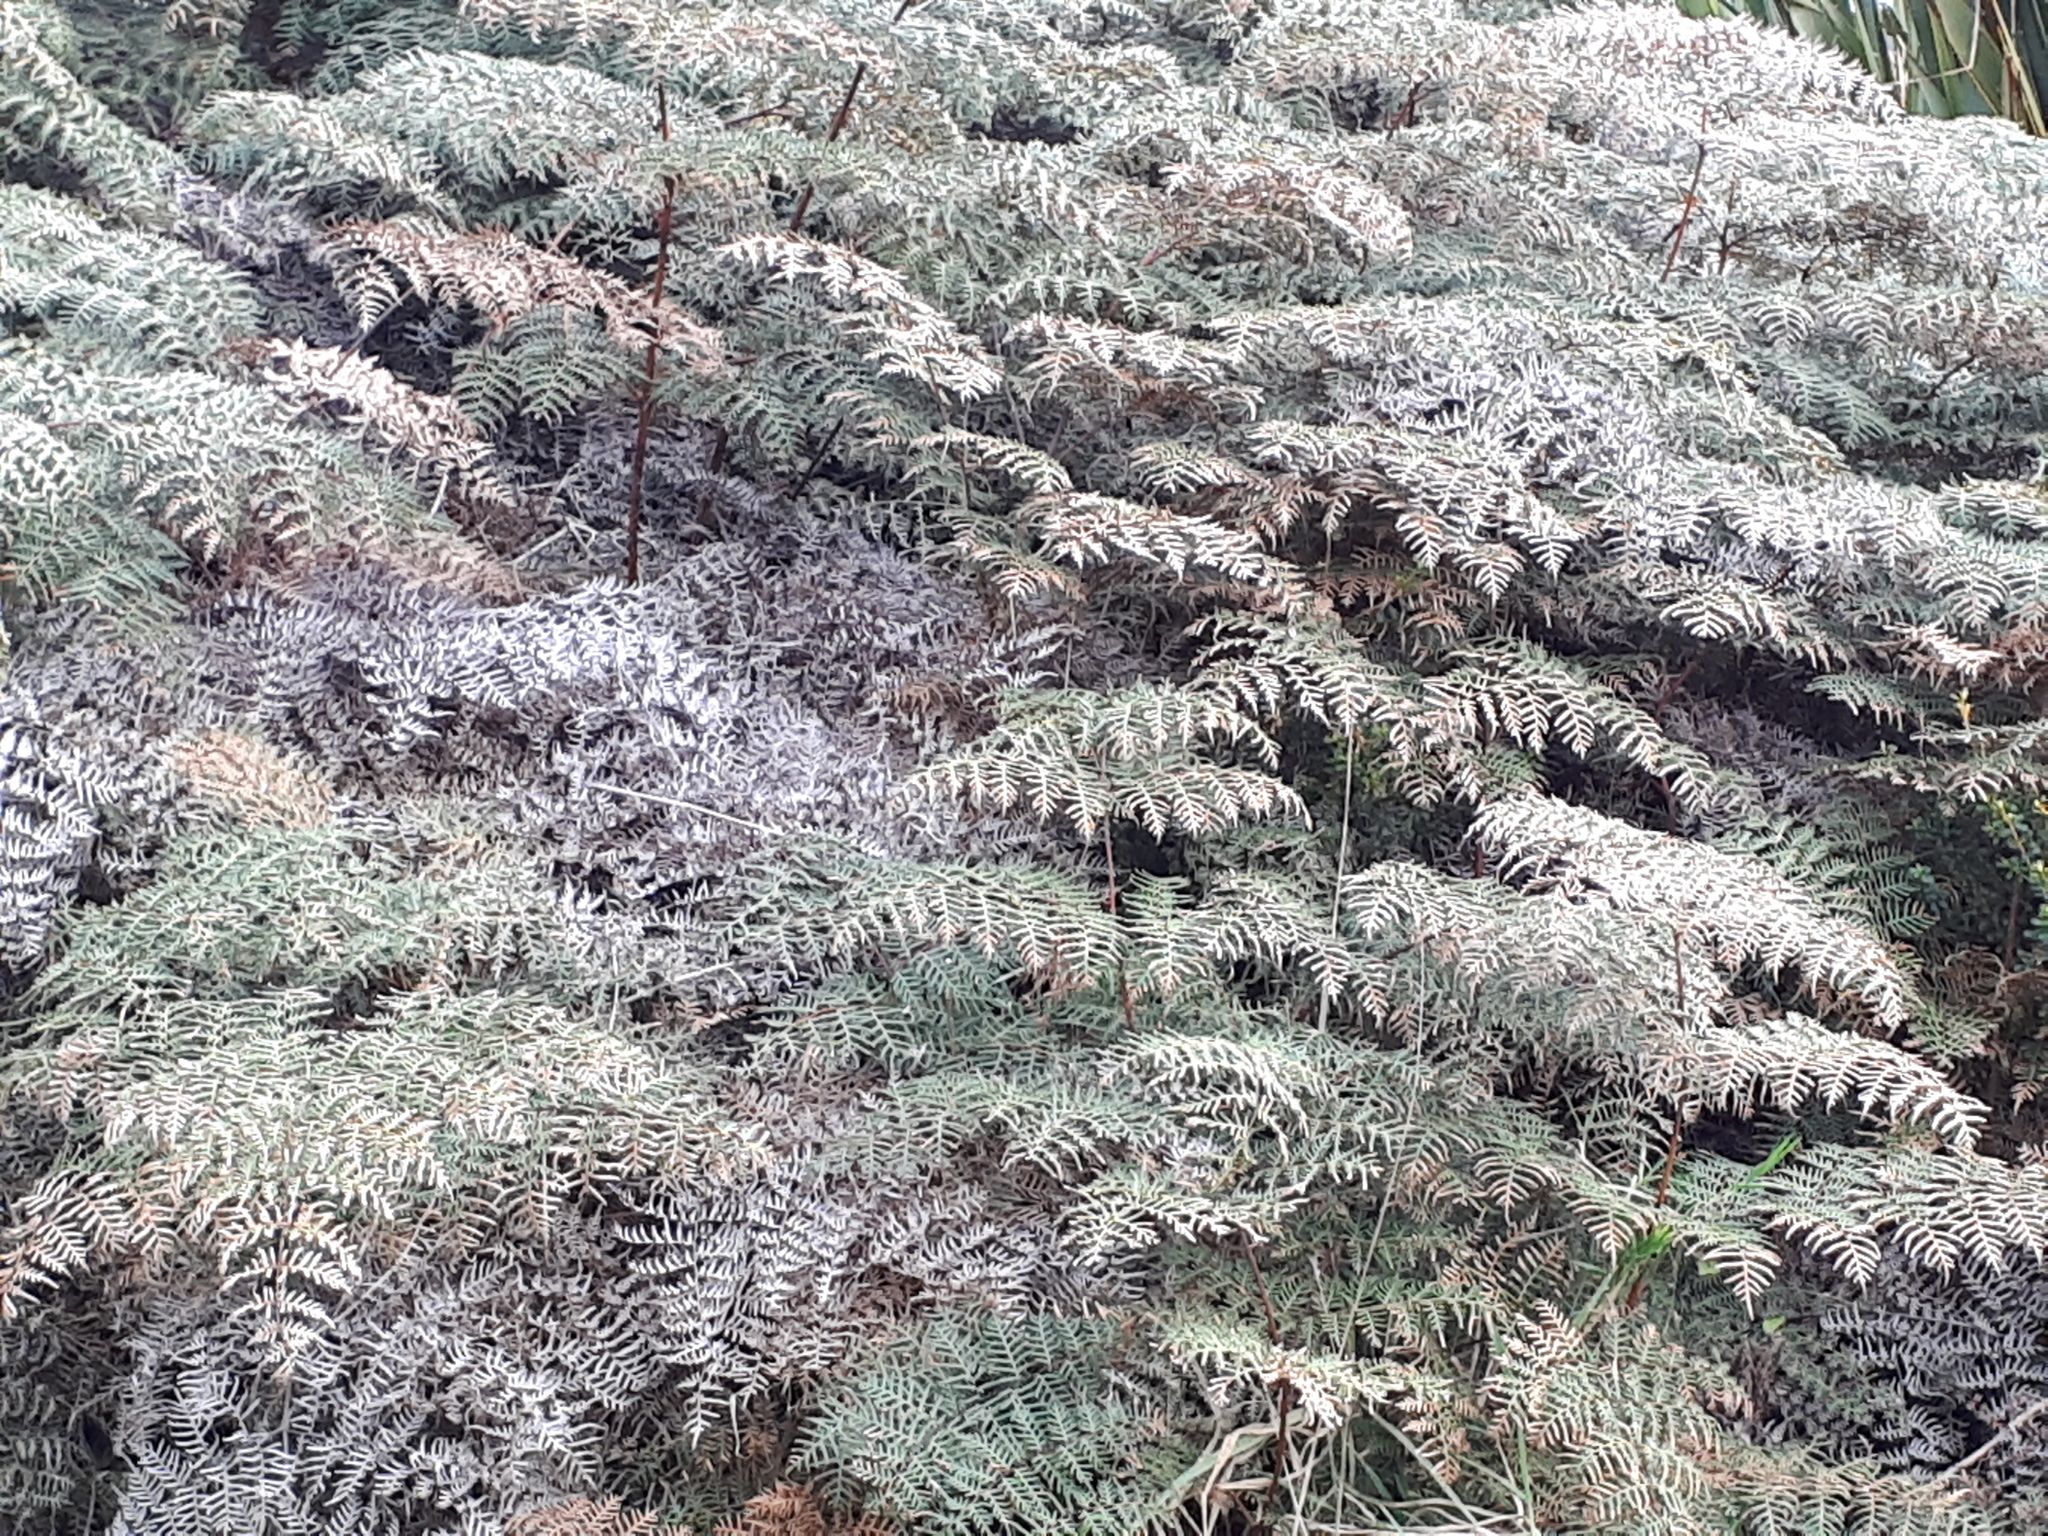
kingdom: Plantae
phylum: Tracheophyta
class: Polypodiopsida
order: Polypodiales
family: Dennstaedtiaceae
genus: Pteridium
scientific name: Pteridium esculentum
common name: Bracken fern
